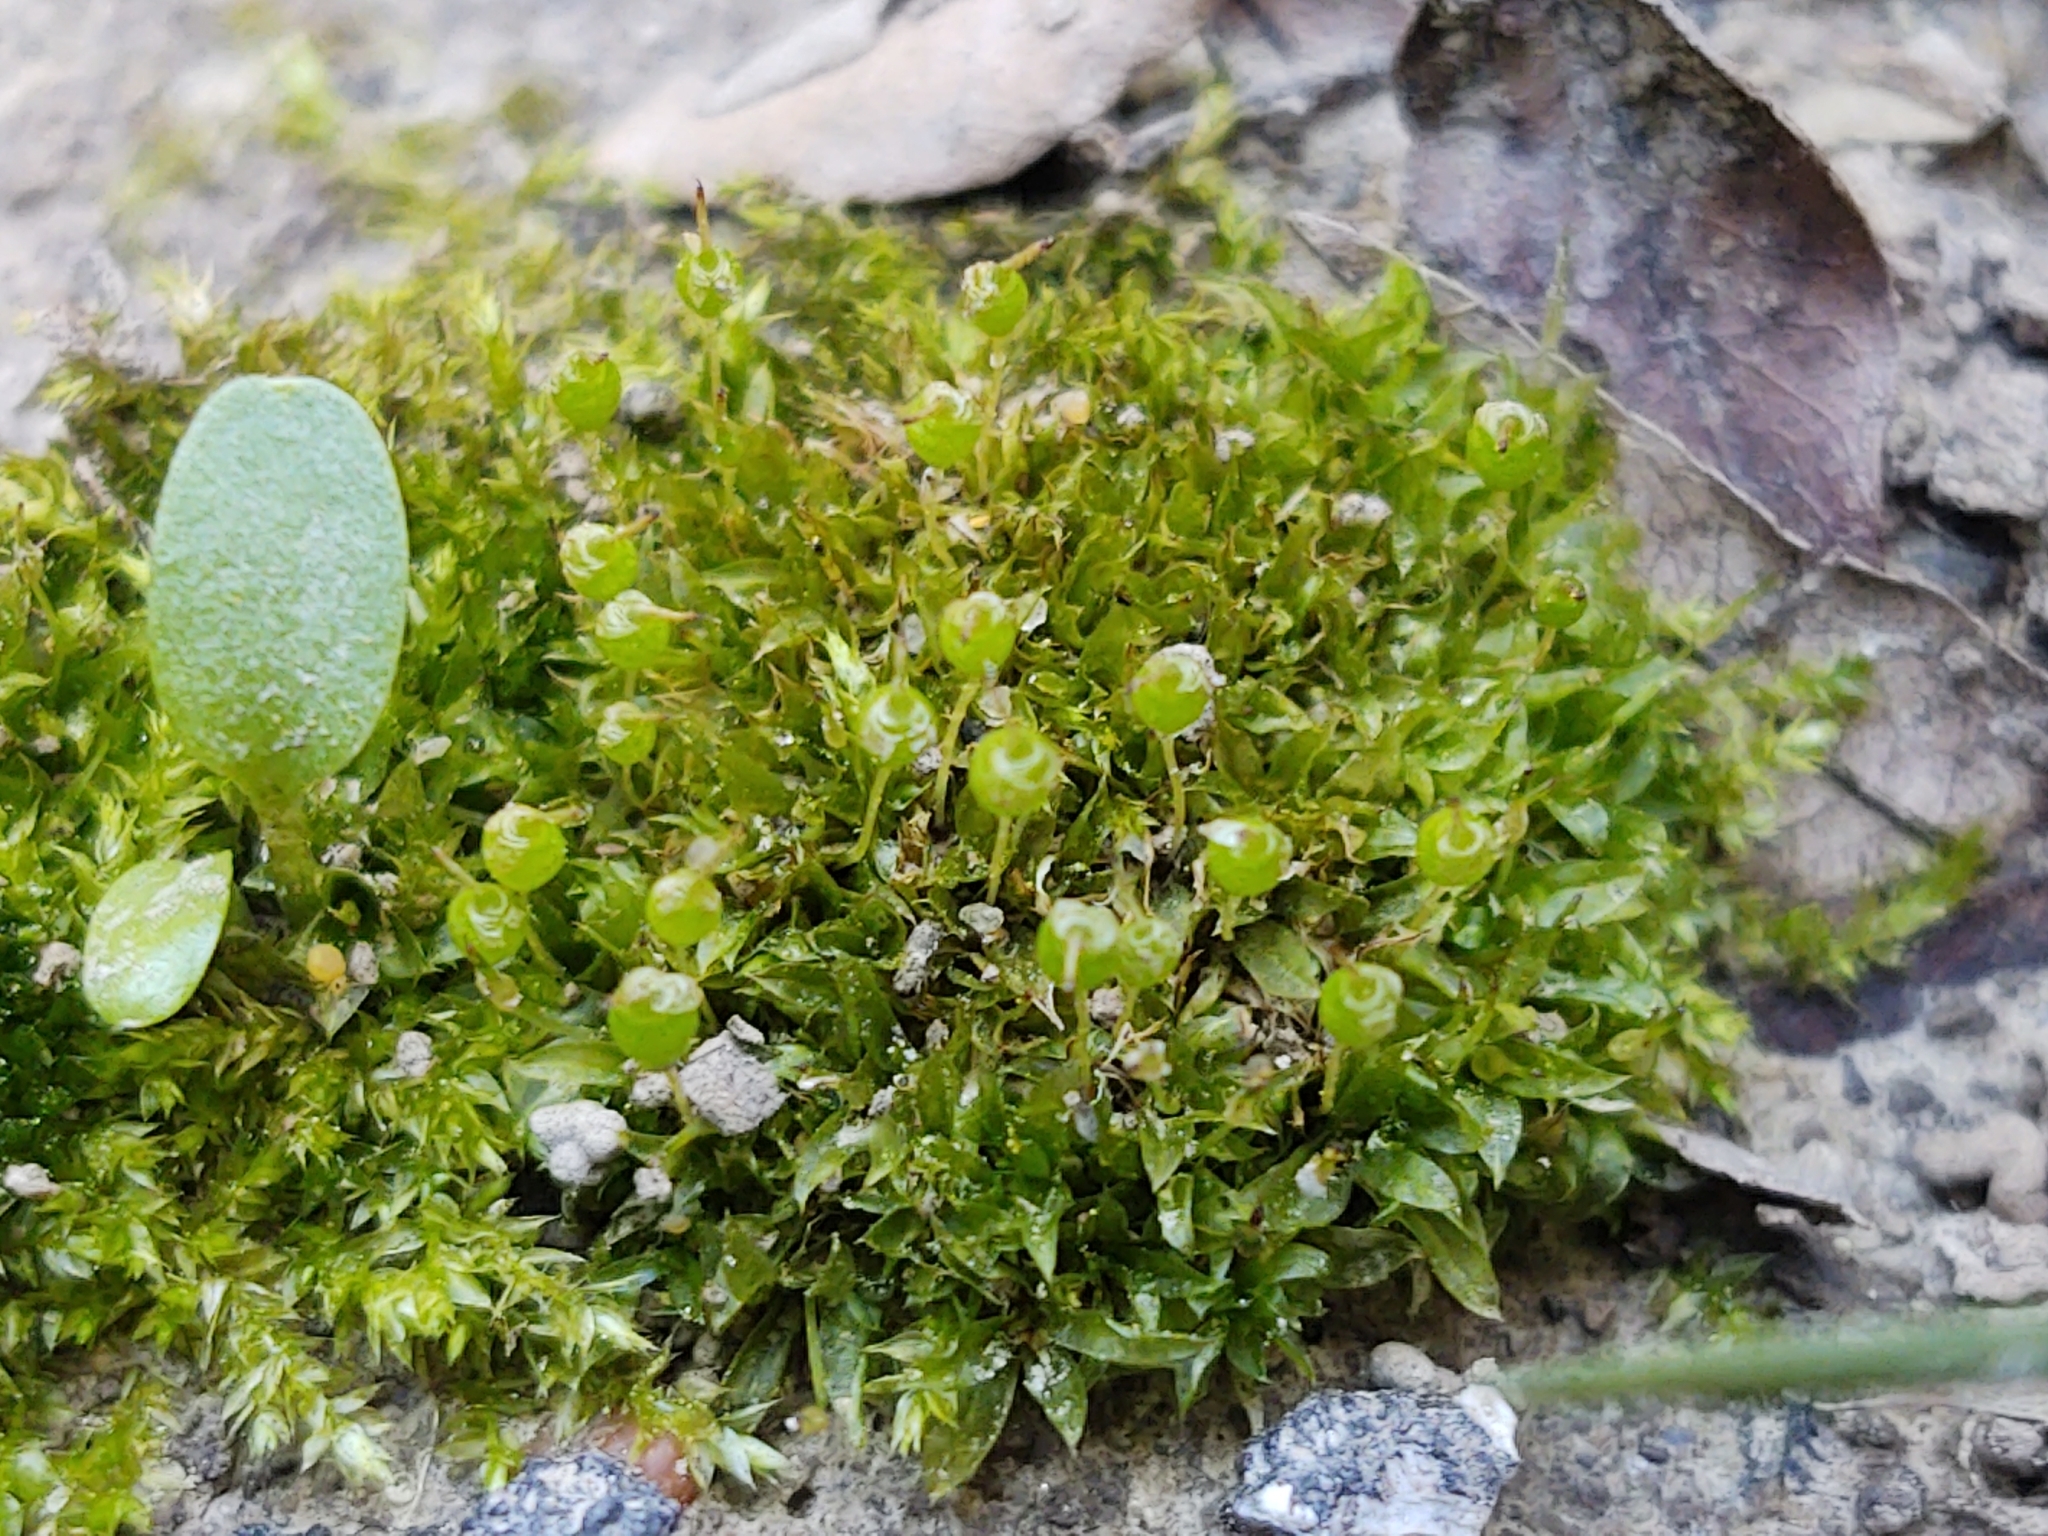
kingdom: Plantae
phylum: Bryophyta
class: Bryopsida
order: Funariales
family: Funariaceae
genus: Physcomitrium
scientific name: Physcomitrium pyriforme
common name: Common bladder-moss
